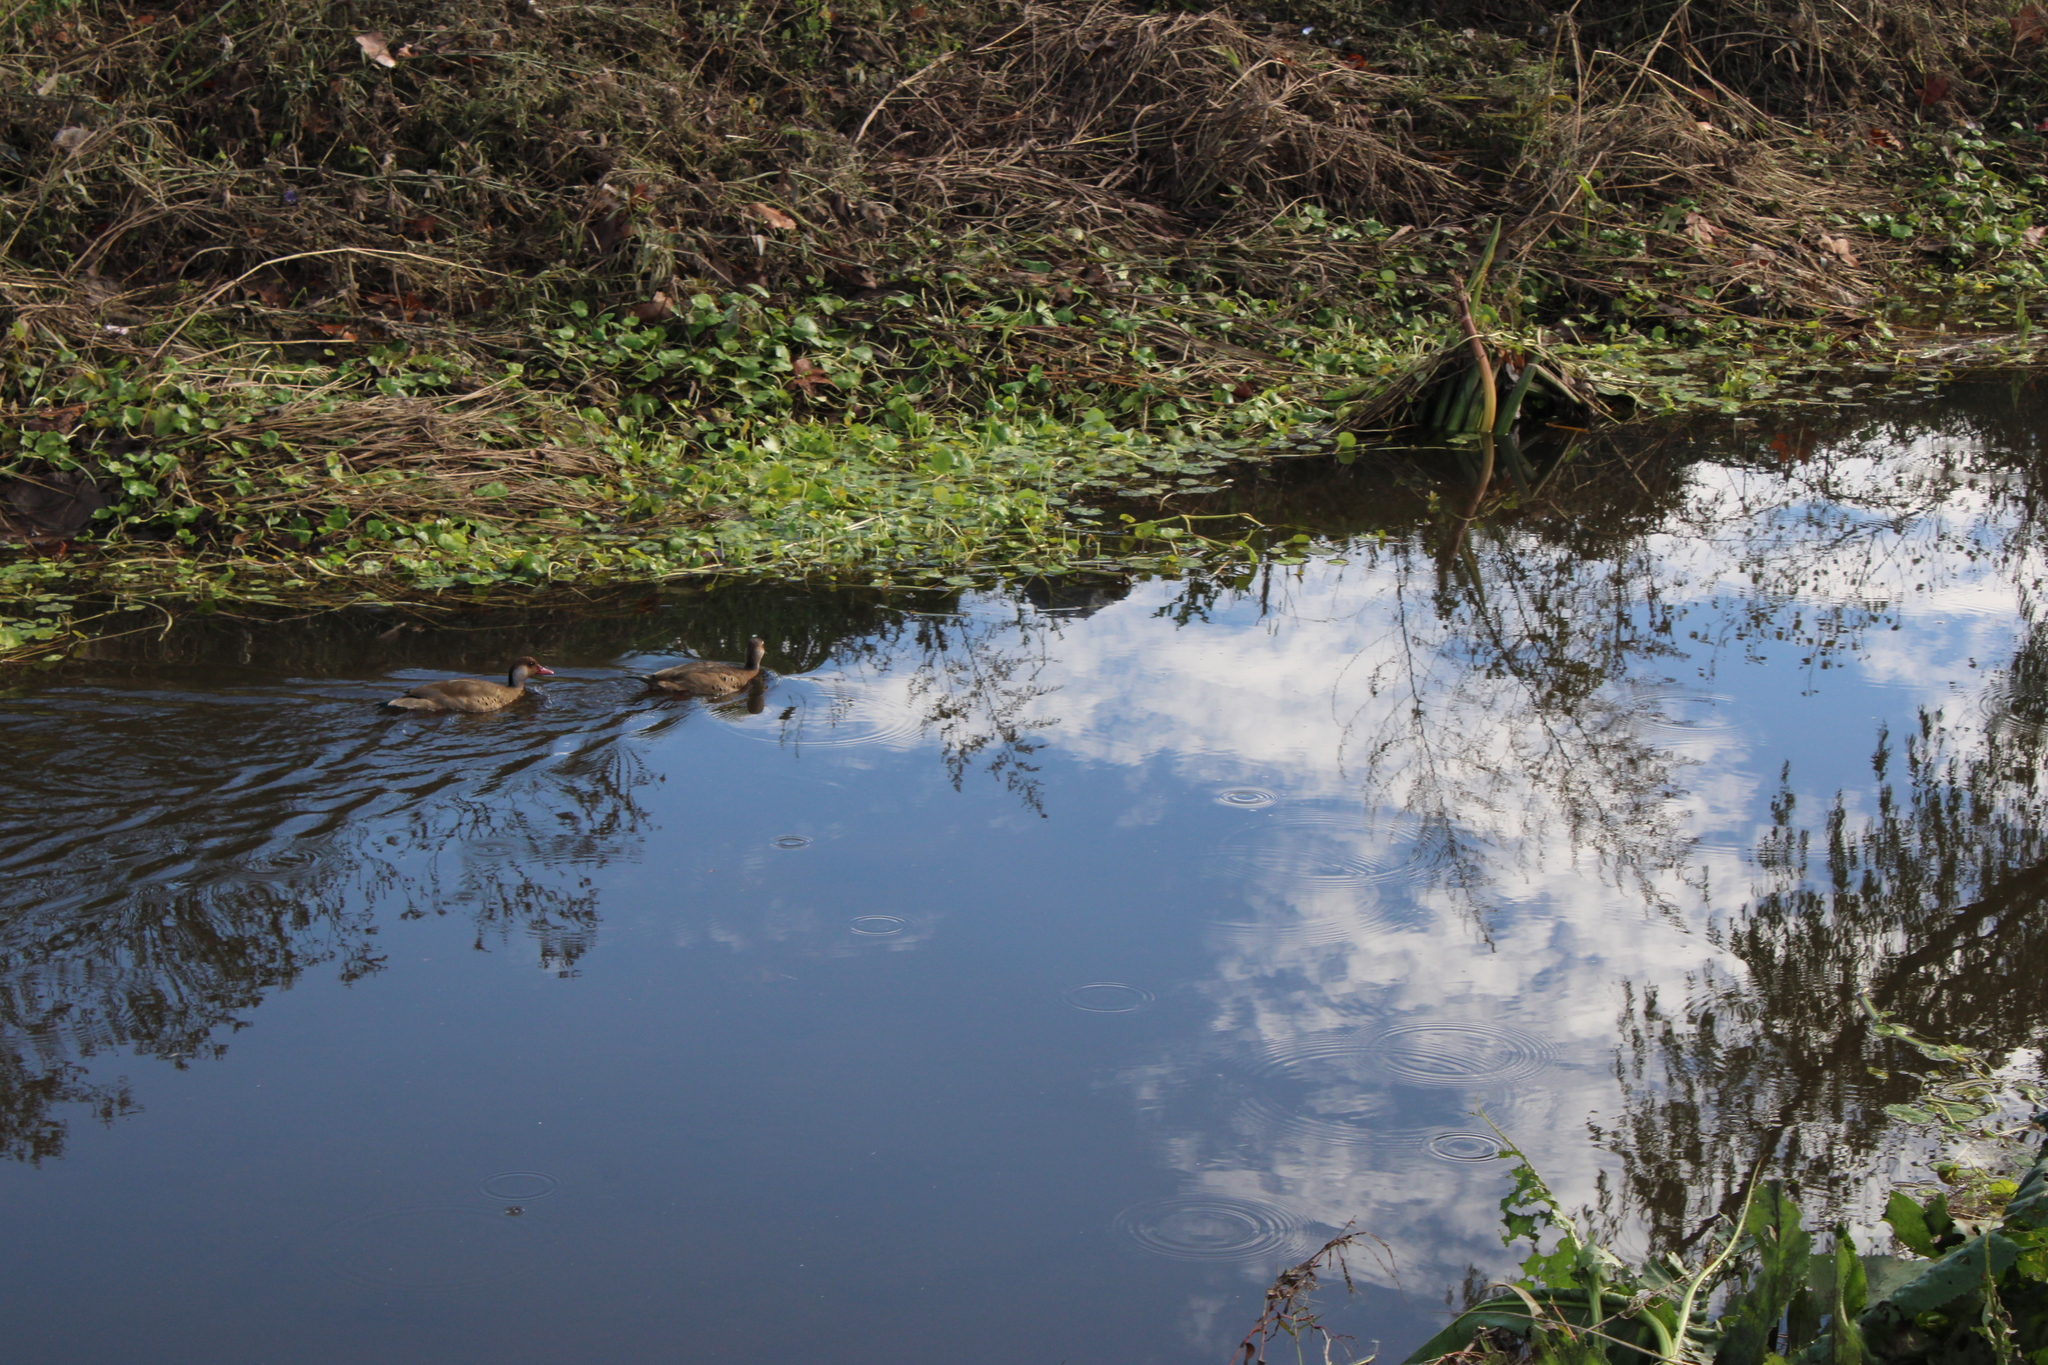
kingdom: Animalia
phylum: Chordata
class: Aves
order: Anseriformes
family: Anatidae
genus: Amazonetta
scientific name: Amazonetta brasiliensis
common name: Brazilian teal
